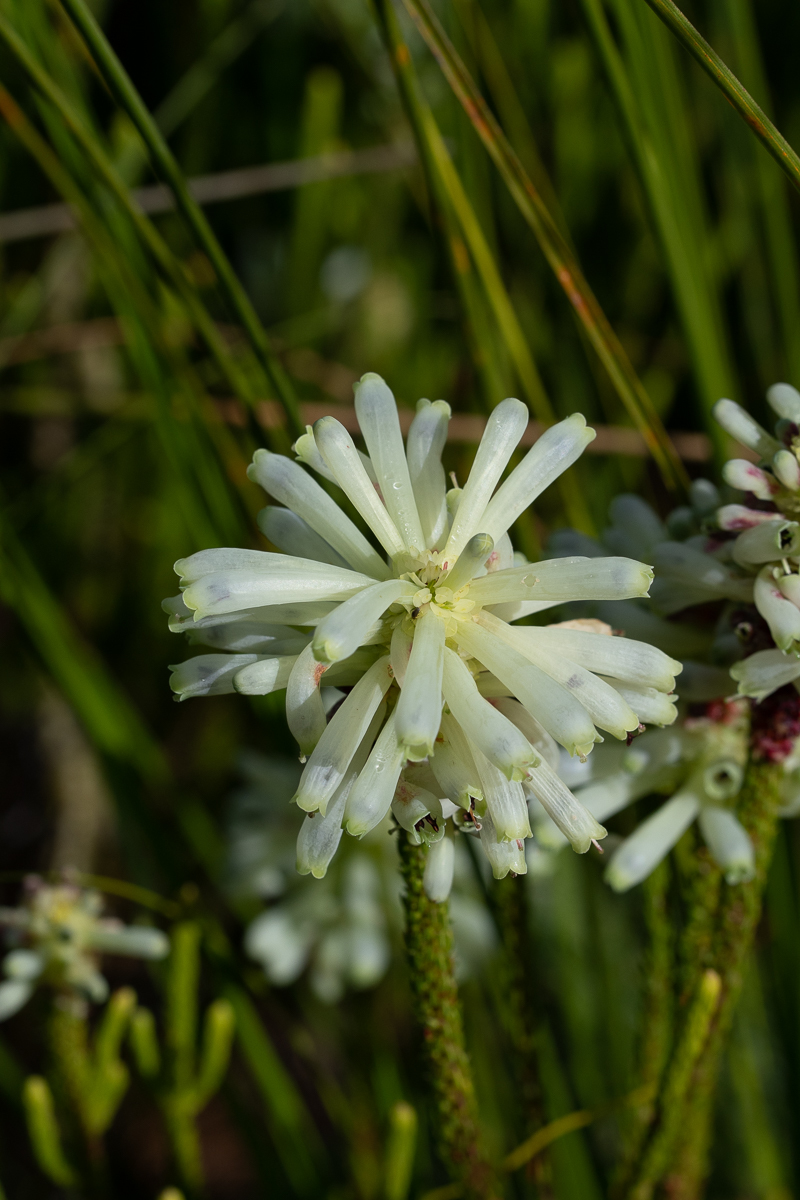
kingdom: Plantae
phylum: Tracheophyta
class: Magnoliopsida
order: Ericales
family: Ericaceae
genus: Erica
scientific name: Erica sessiliflora
